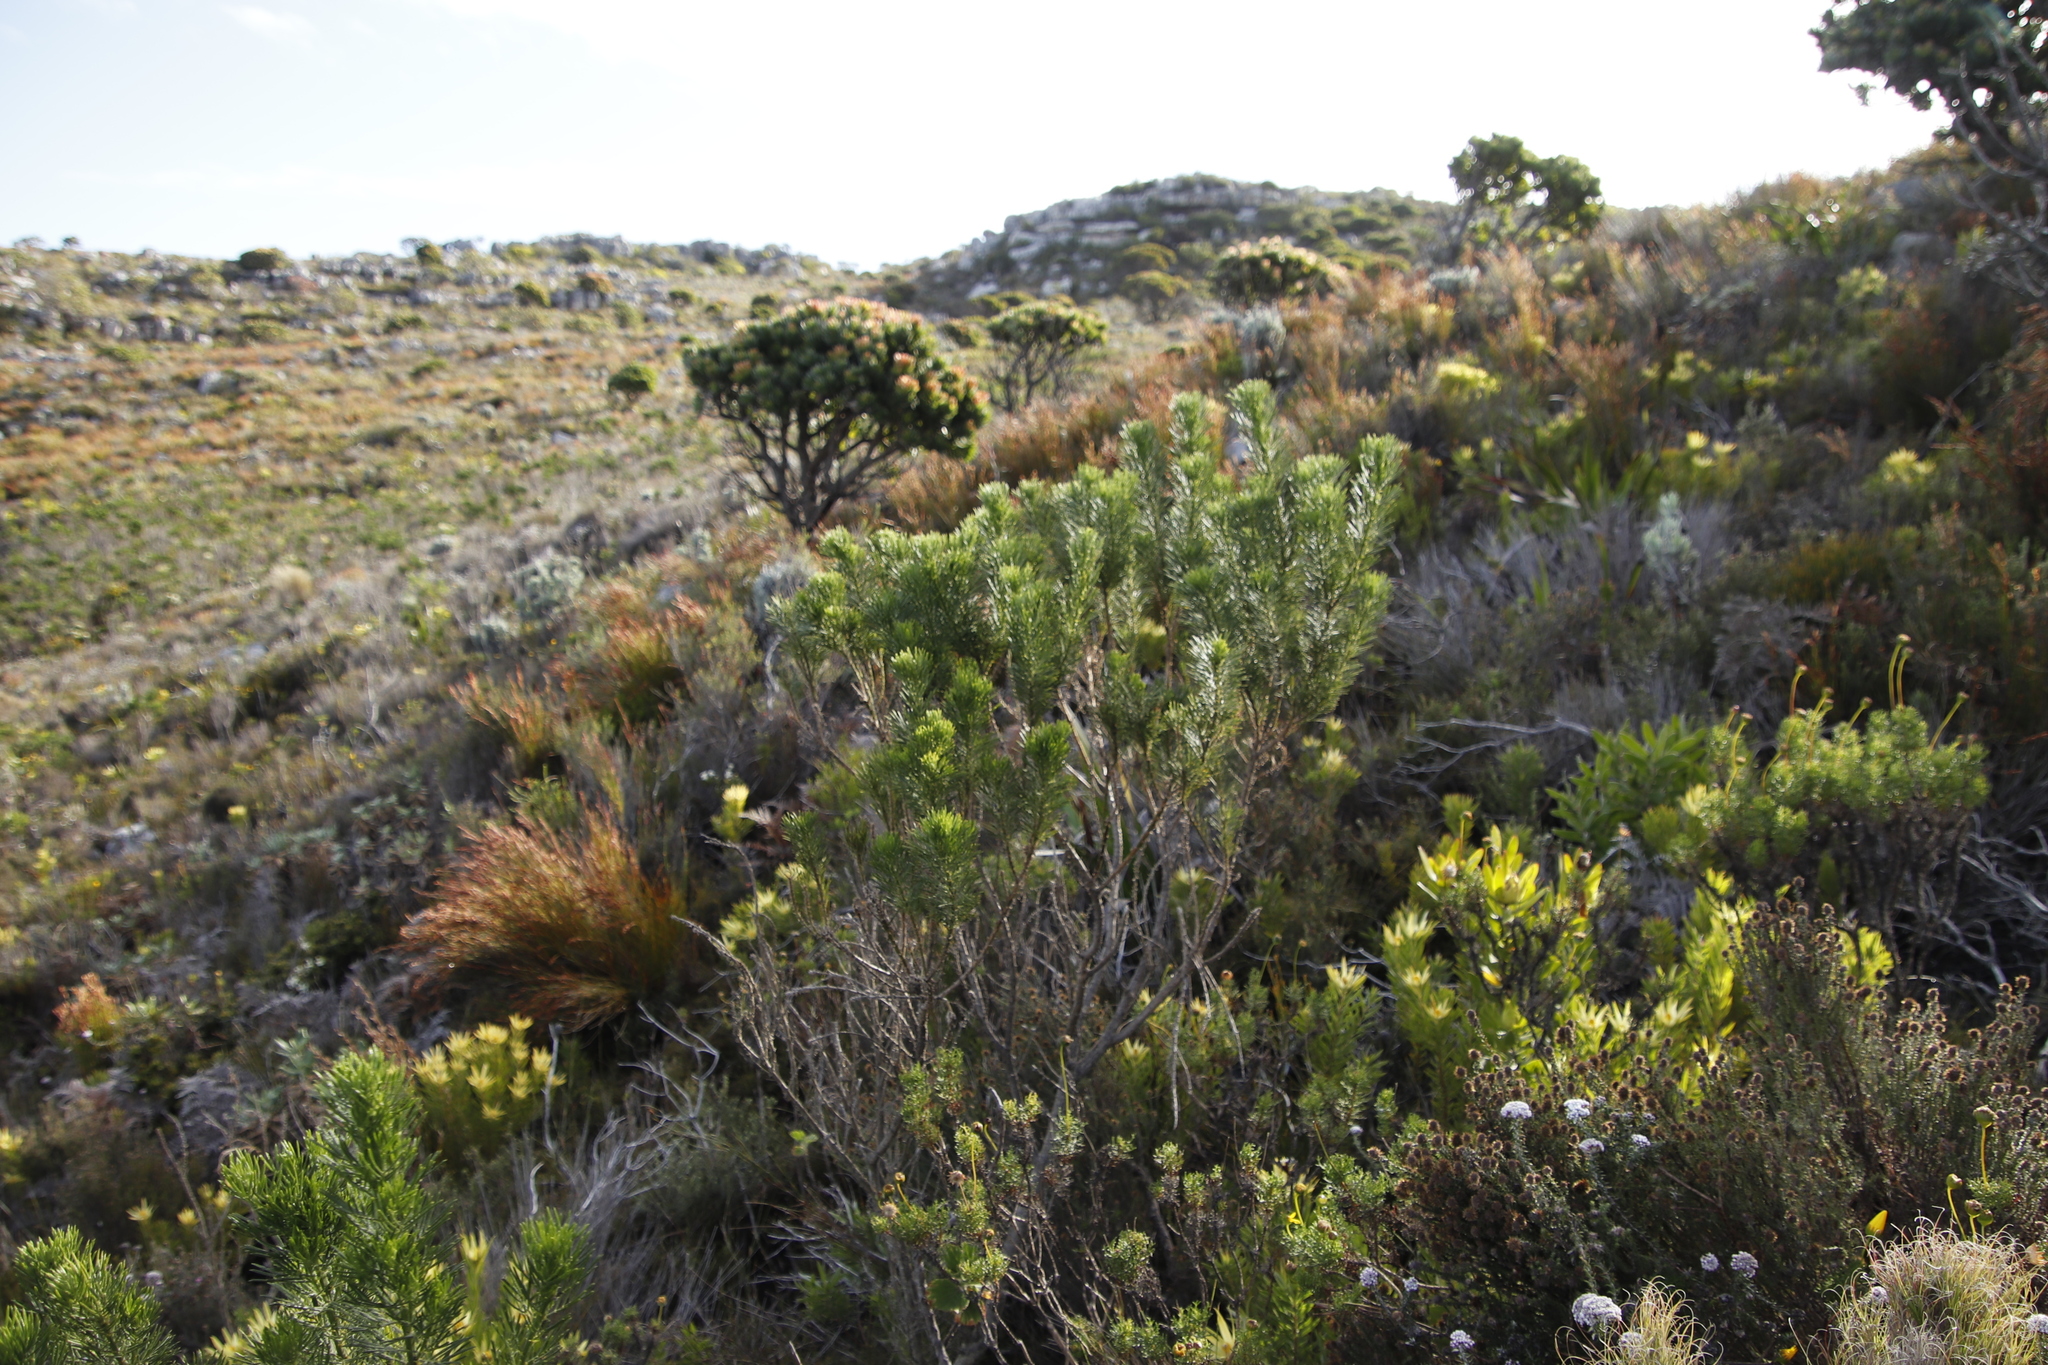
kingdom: Plantae
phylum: Tracheophyta
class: Magnoliopsida
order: Fabales
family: Fabaceae
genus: Psoralea
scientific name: Psoralea pinnata
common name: African scurfpea
